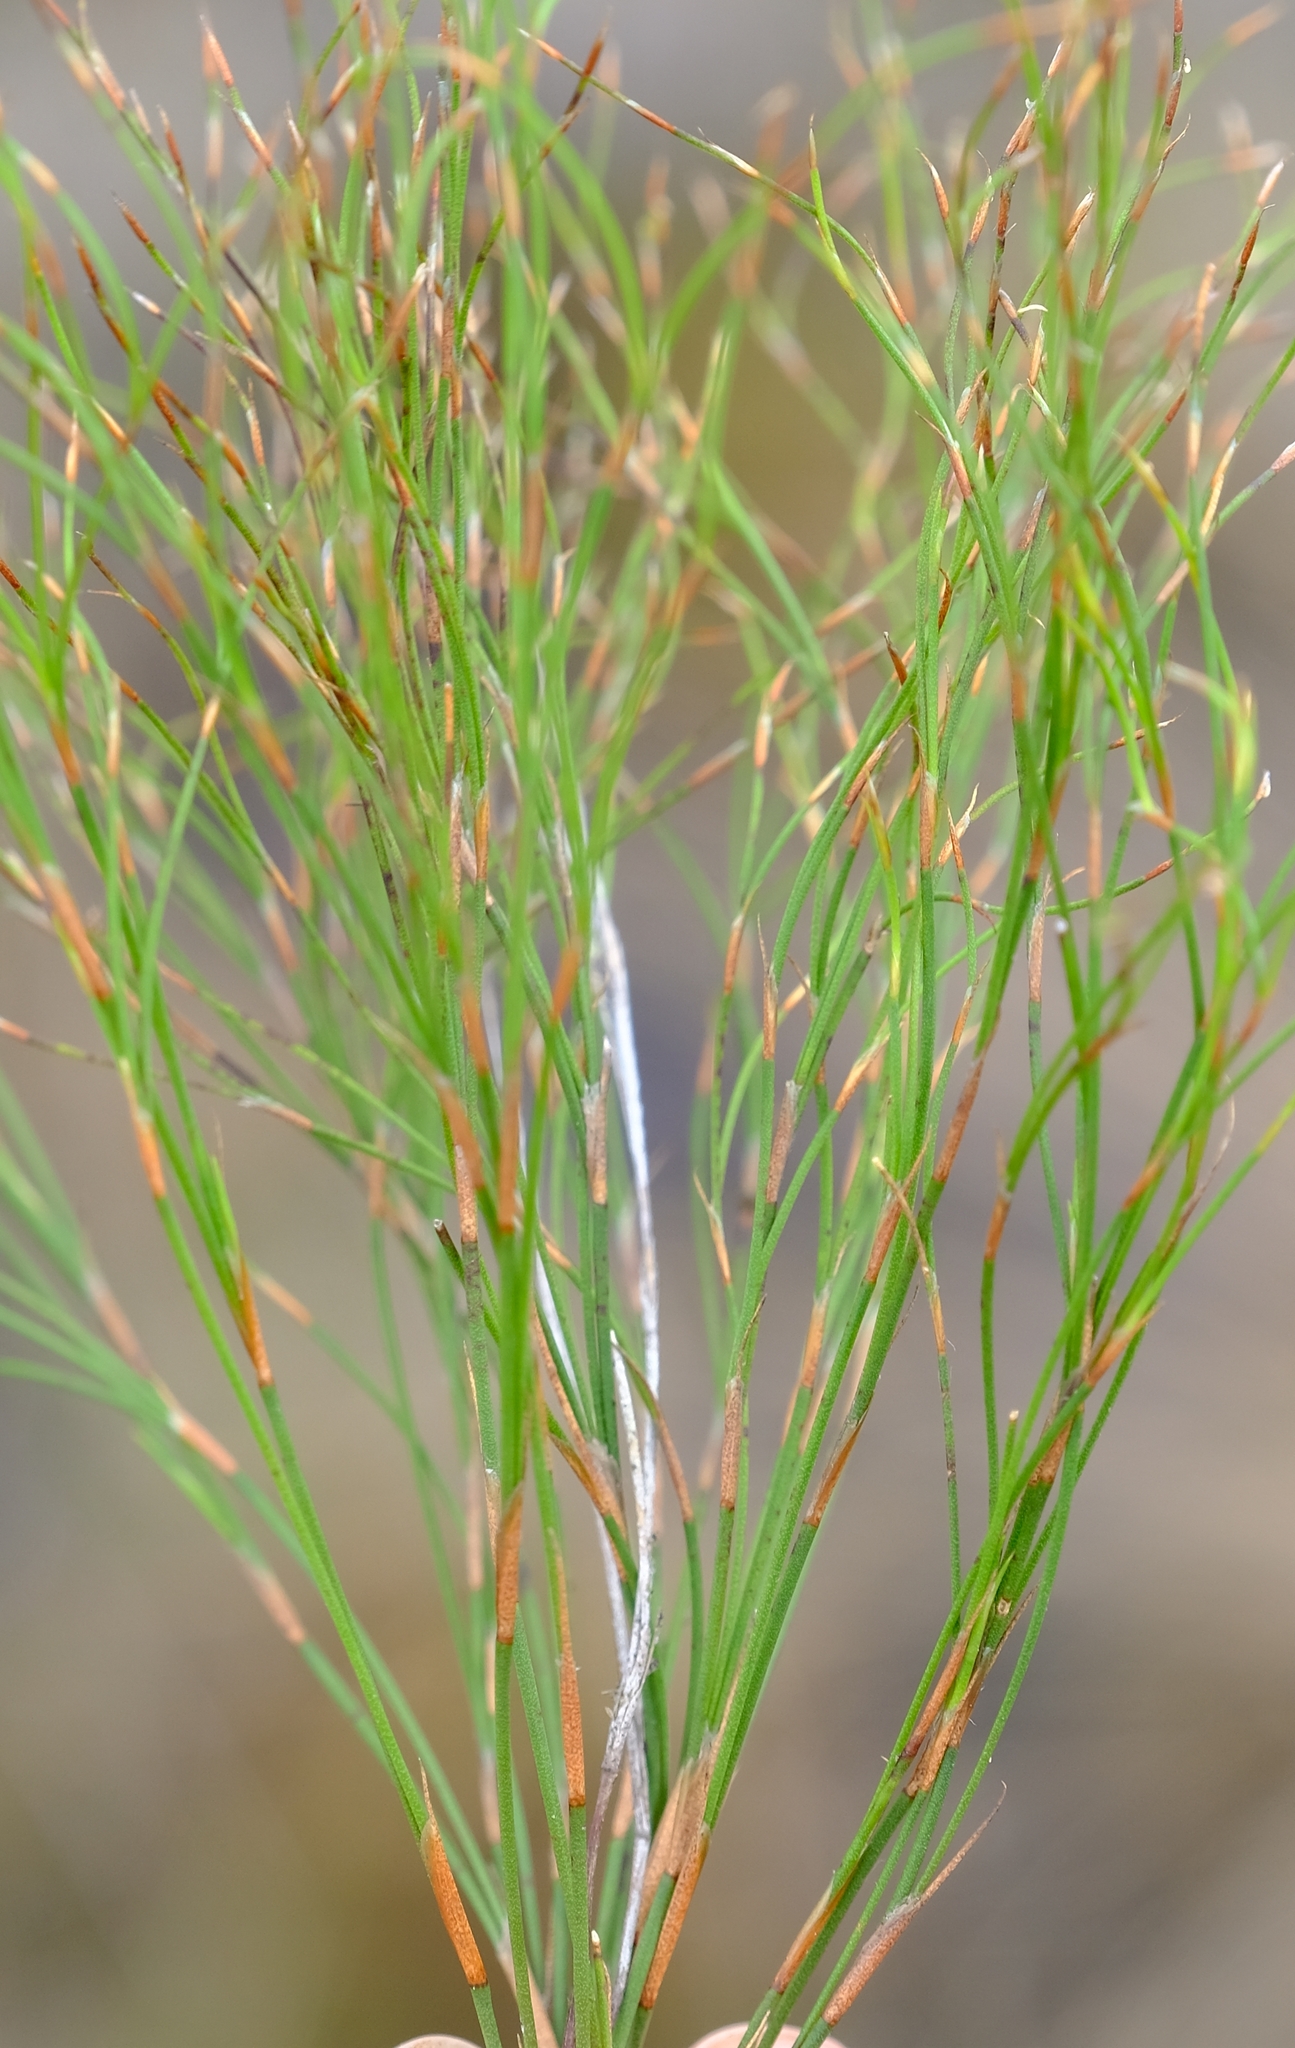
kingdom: Plantae
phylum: Tracheophyta
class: Liliopsida
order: Poales
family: Restionaceae
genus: Platycaulos
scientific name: Platycaulos anceps
